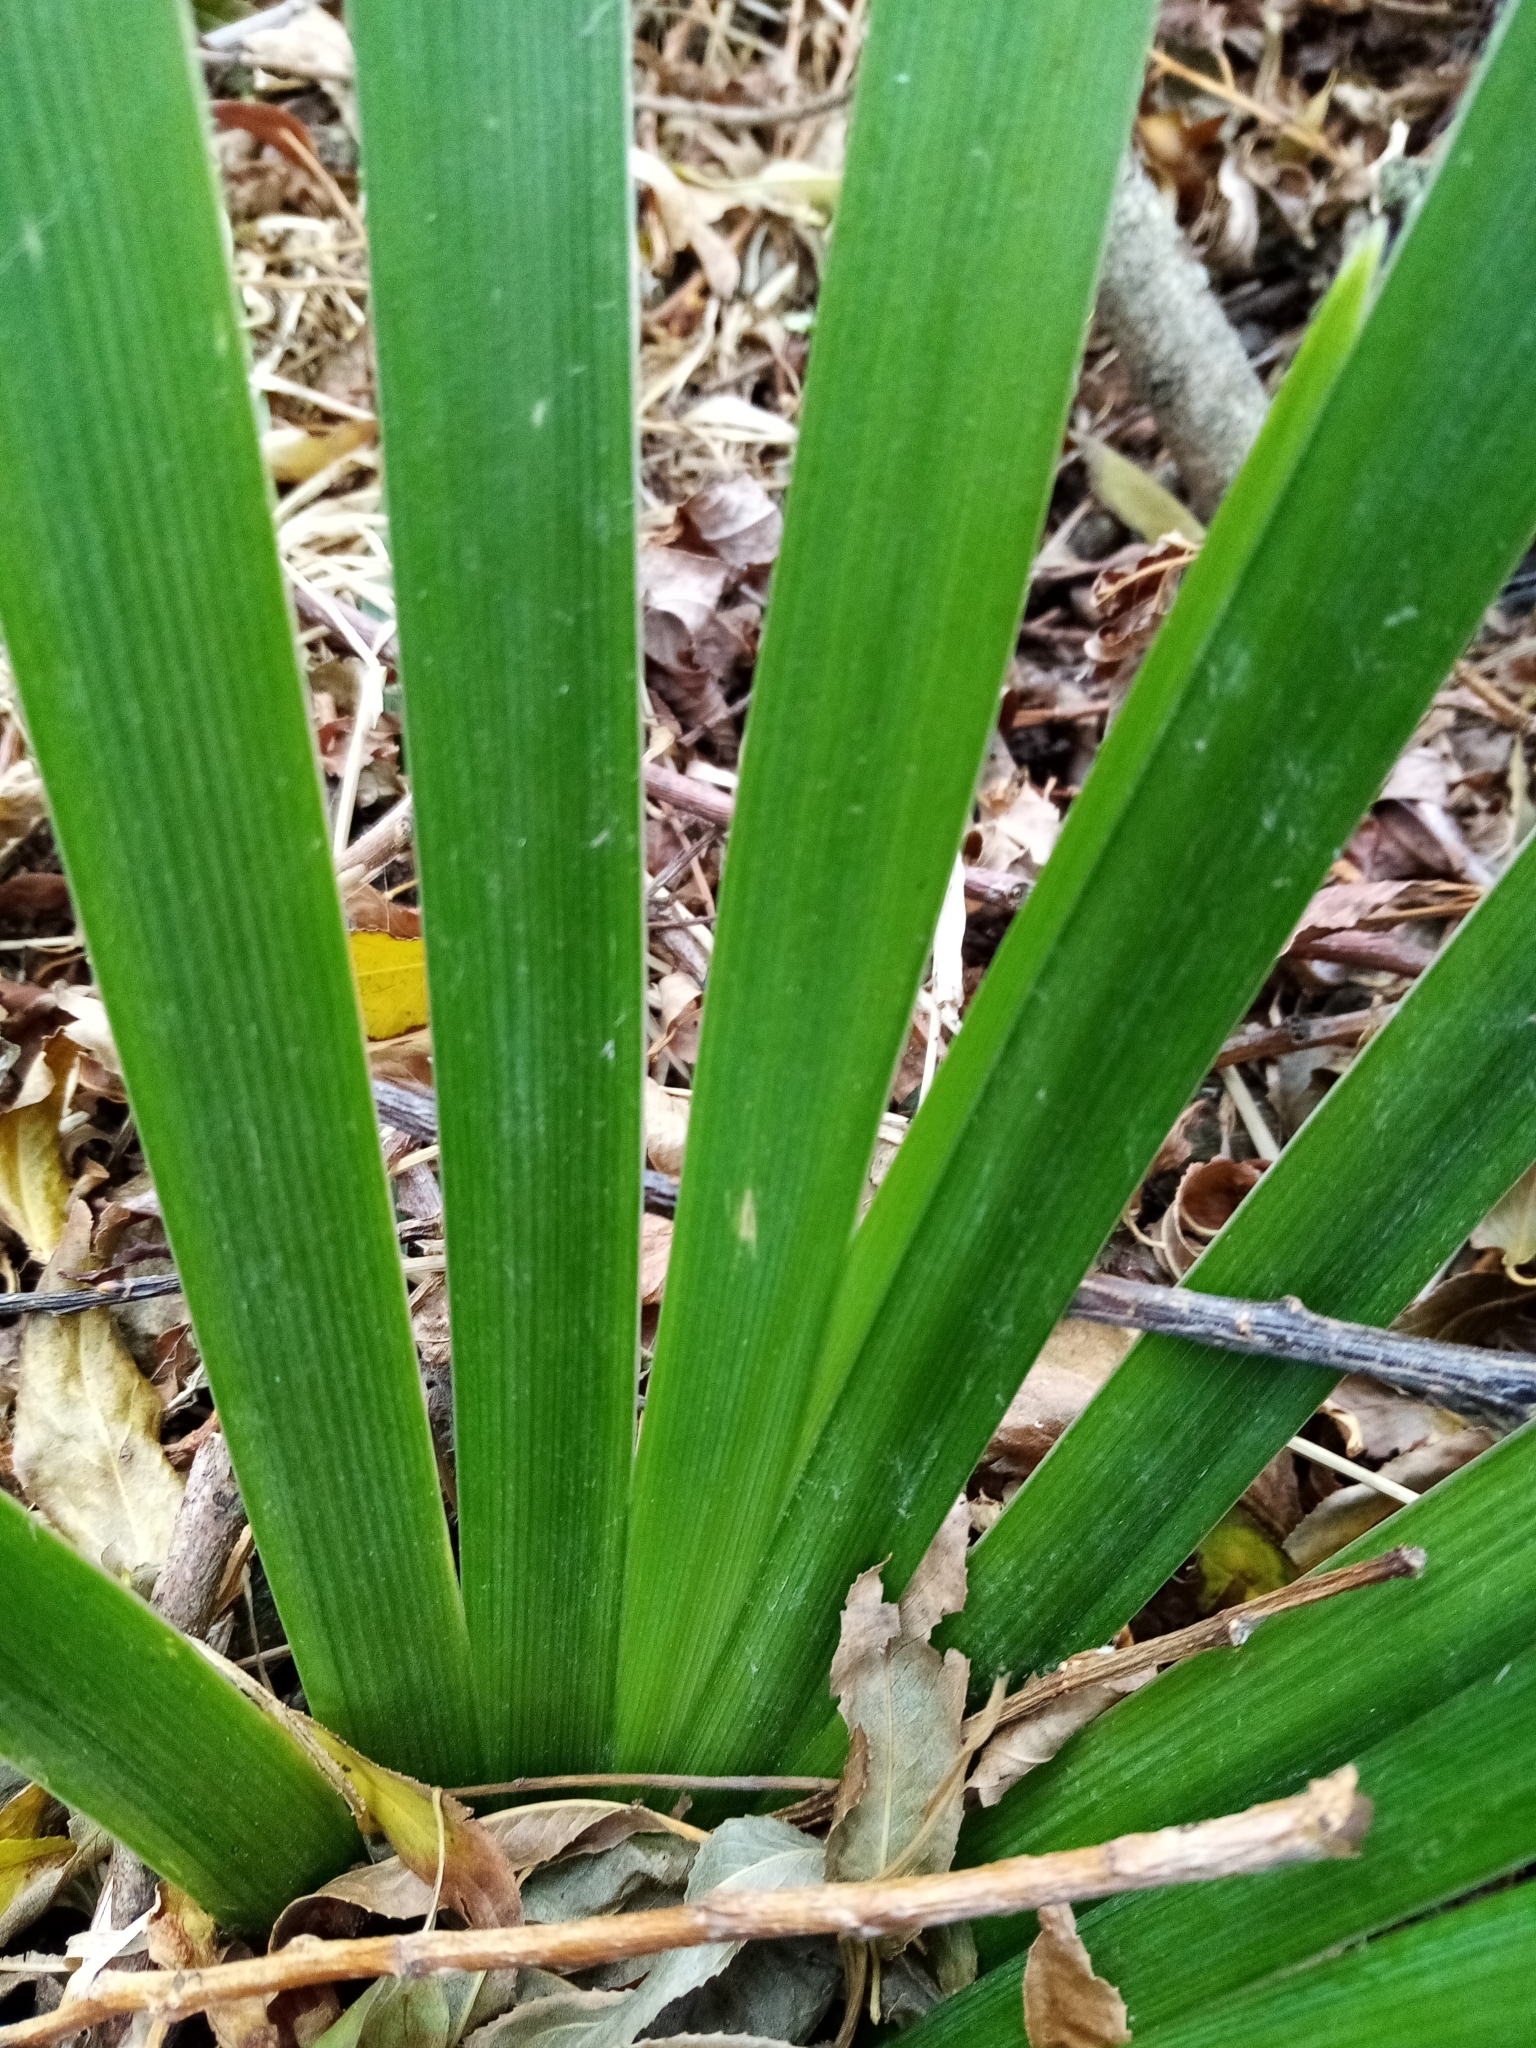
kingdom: Plantae
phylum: Tracheophyta
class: Liliopsida
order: Asparagales
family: Iridaceae
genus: Iris
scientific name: Iris foetidissima
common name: Stinking iris
